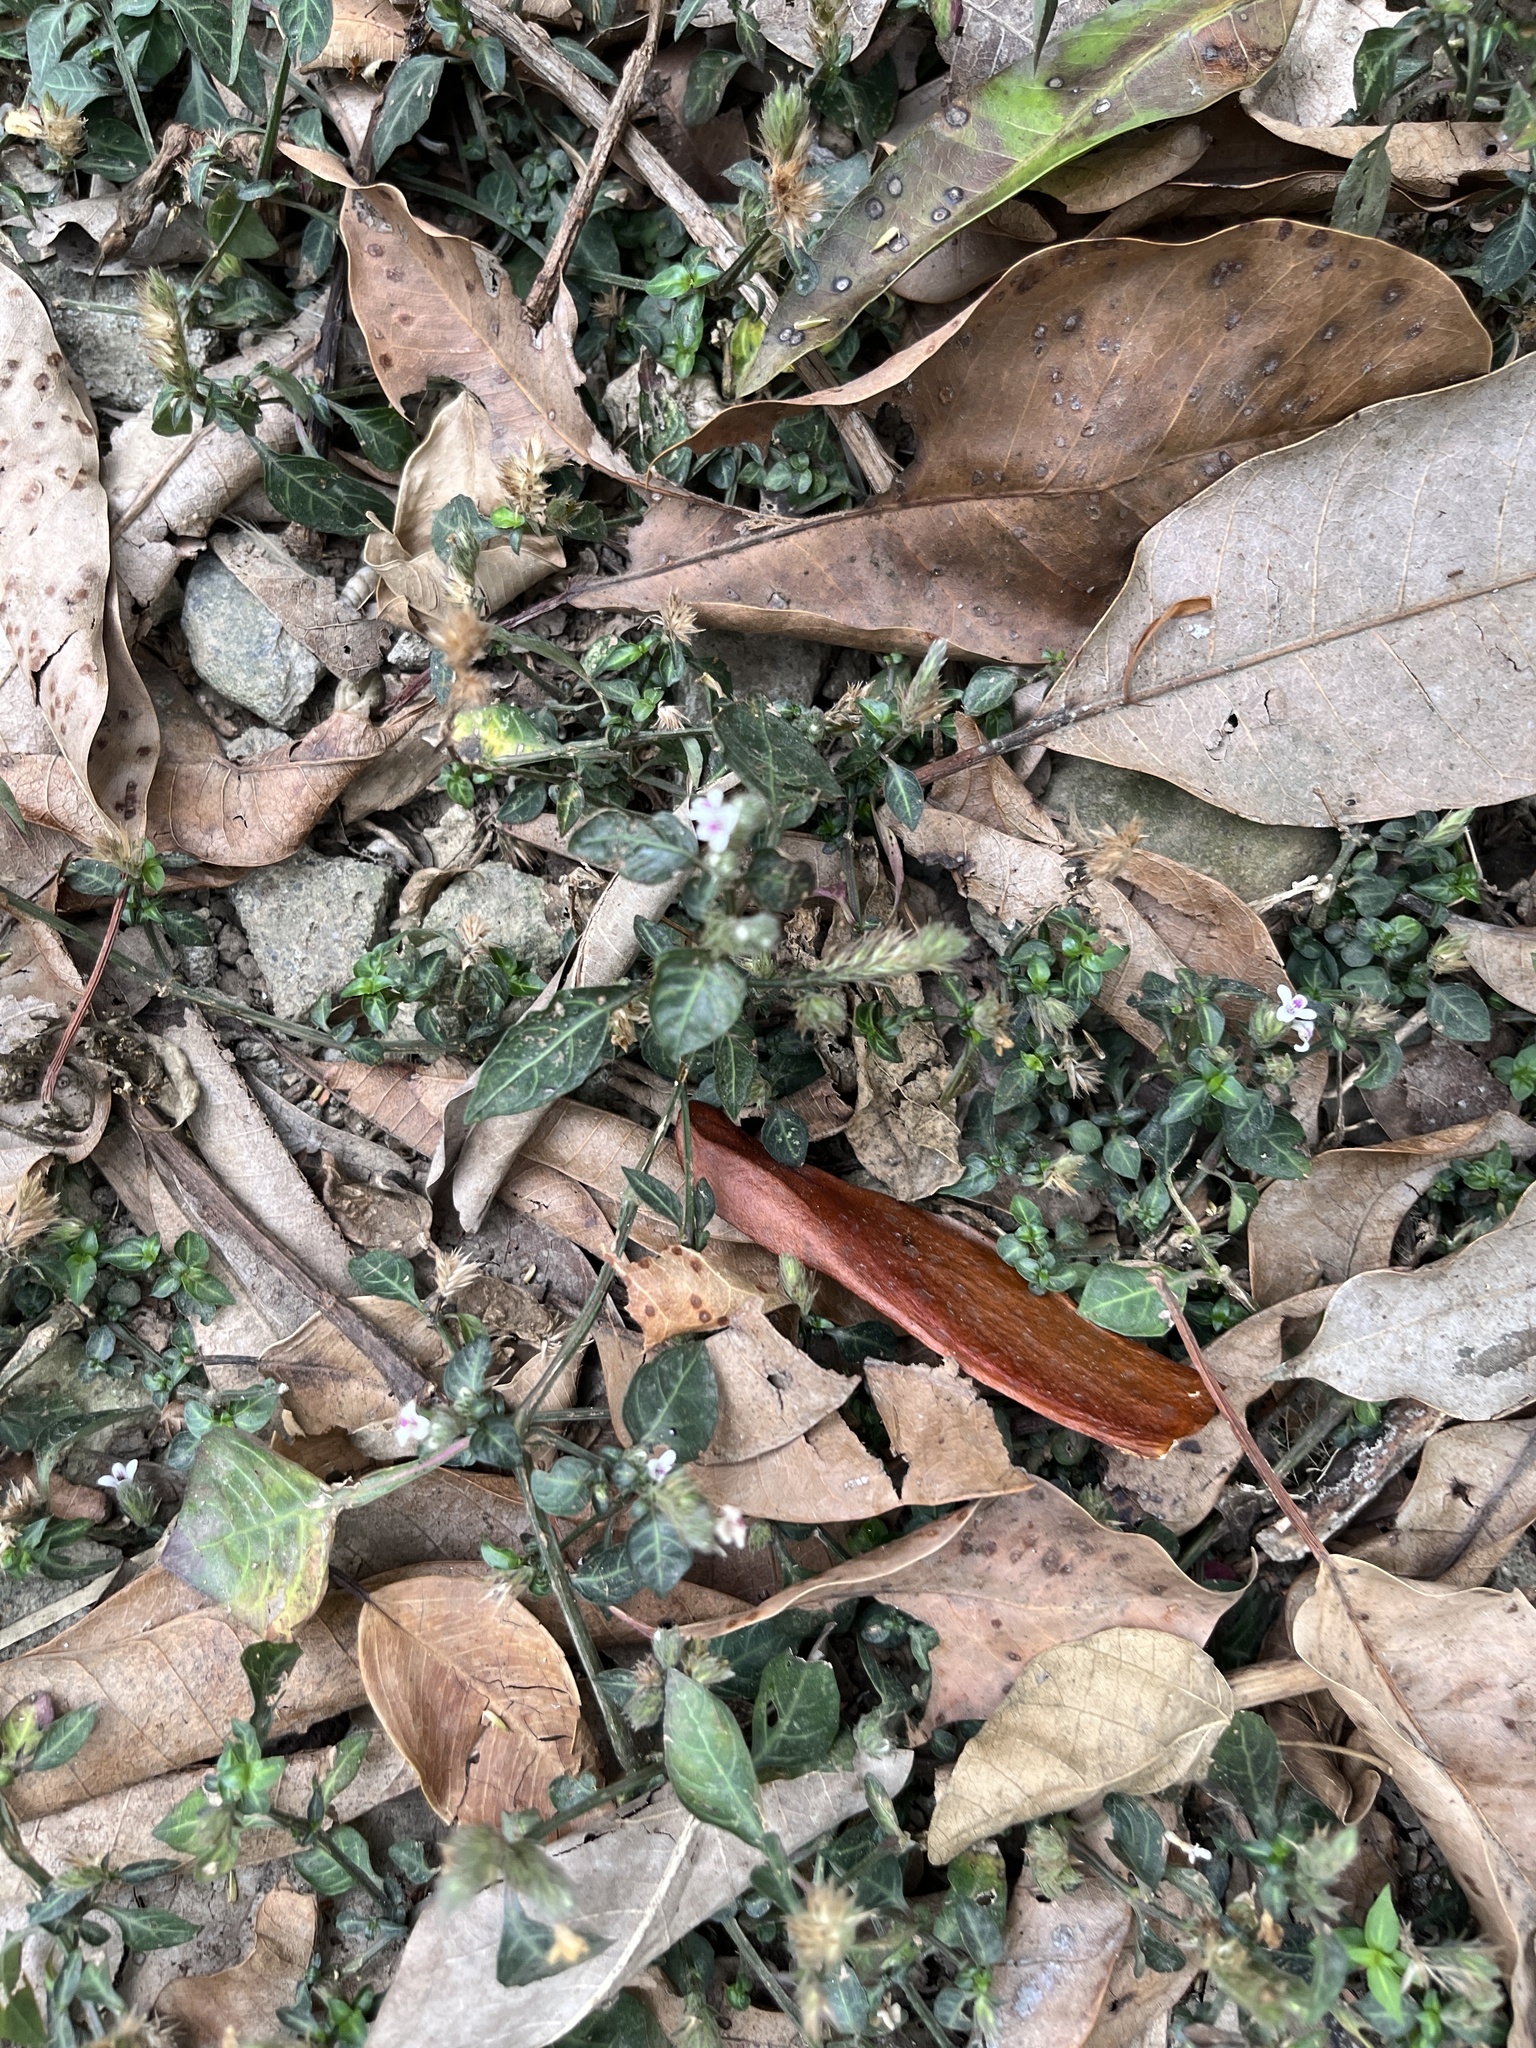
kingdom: Plantae
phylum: Tracheophyta
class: Magnoliopsida
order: Lamiales
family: Acanthaceae
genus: Lepidagathis
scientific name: Lepidagathis inaequalis
